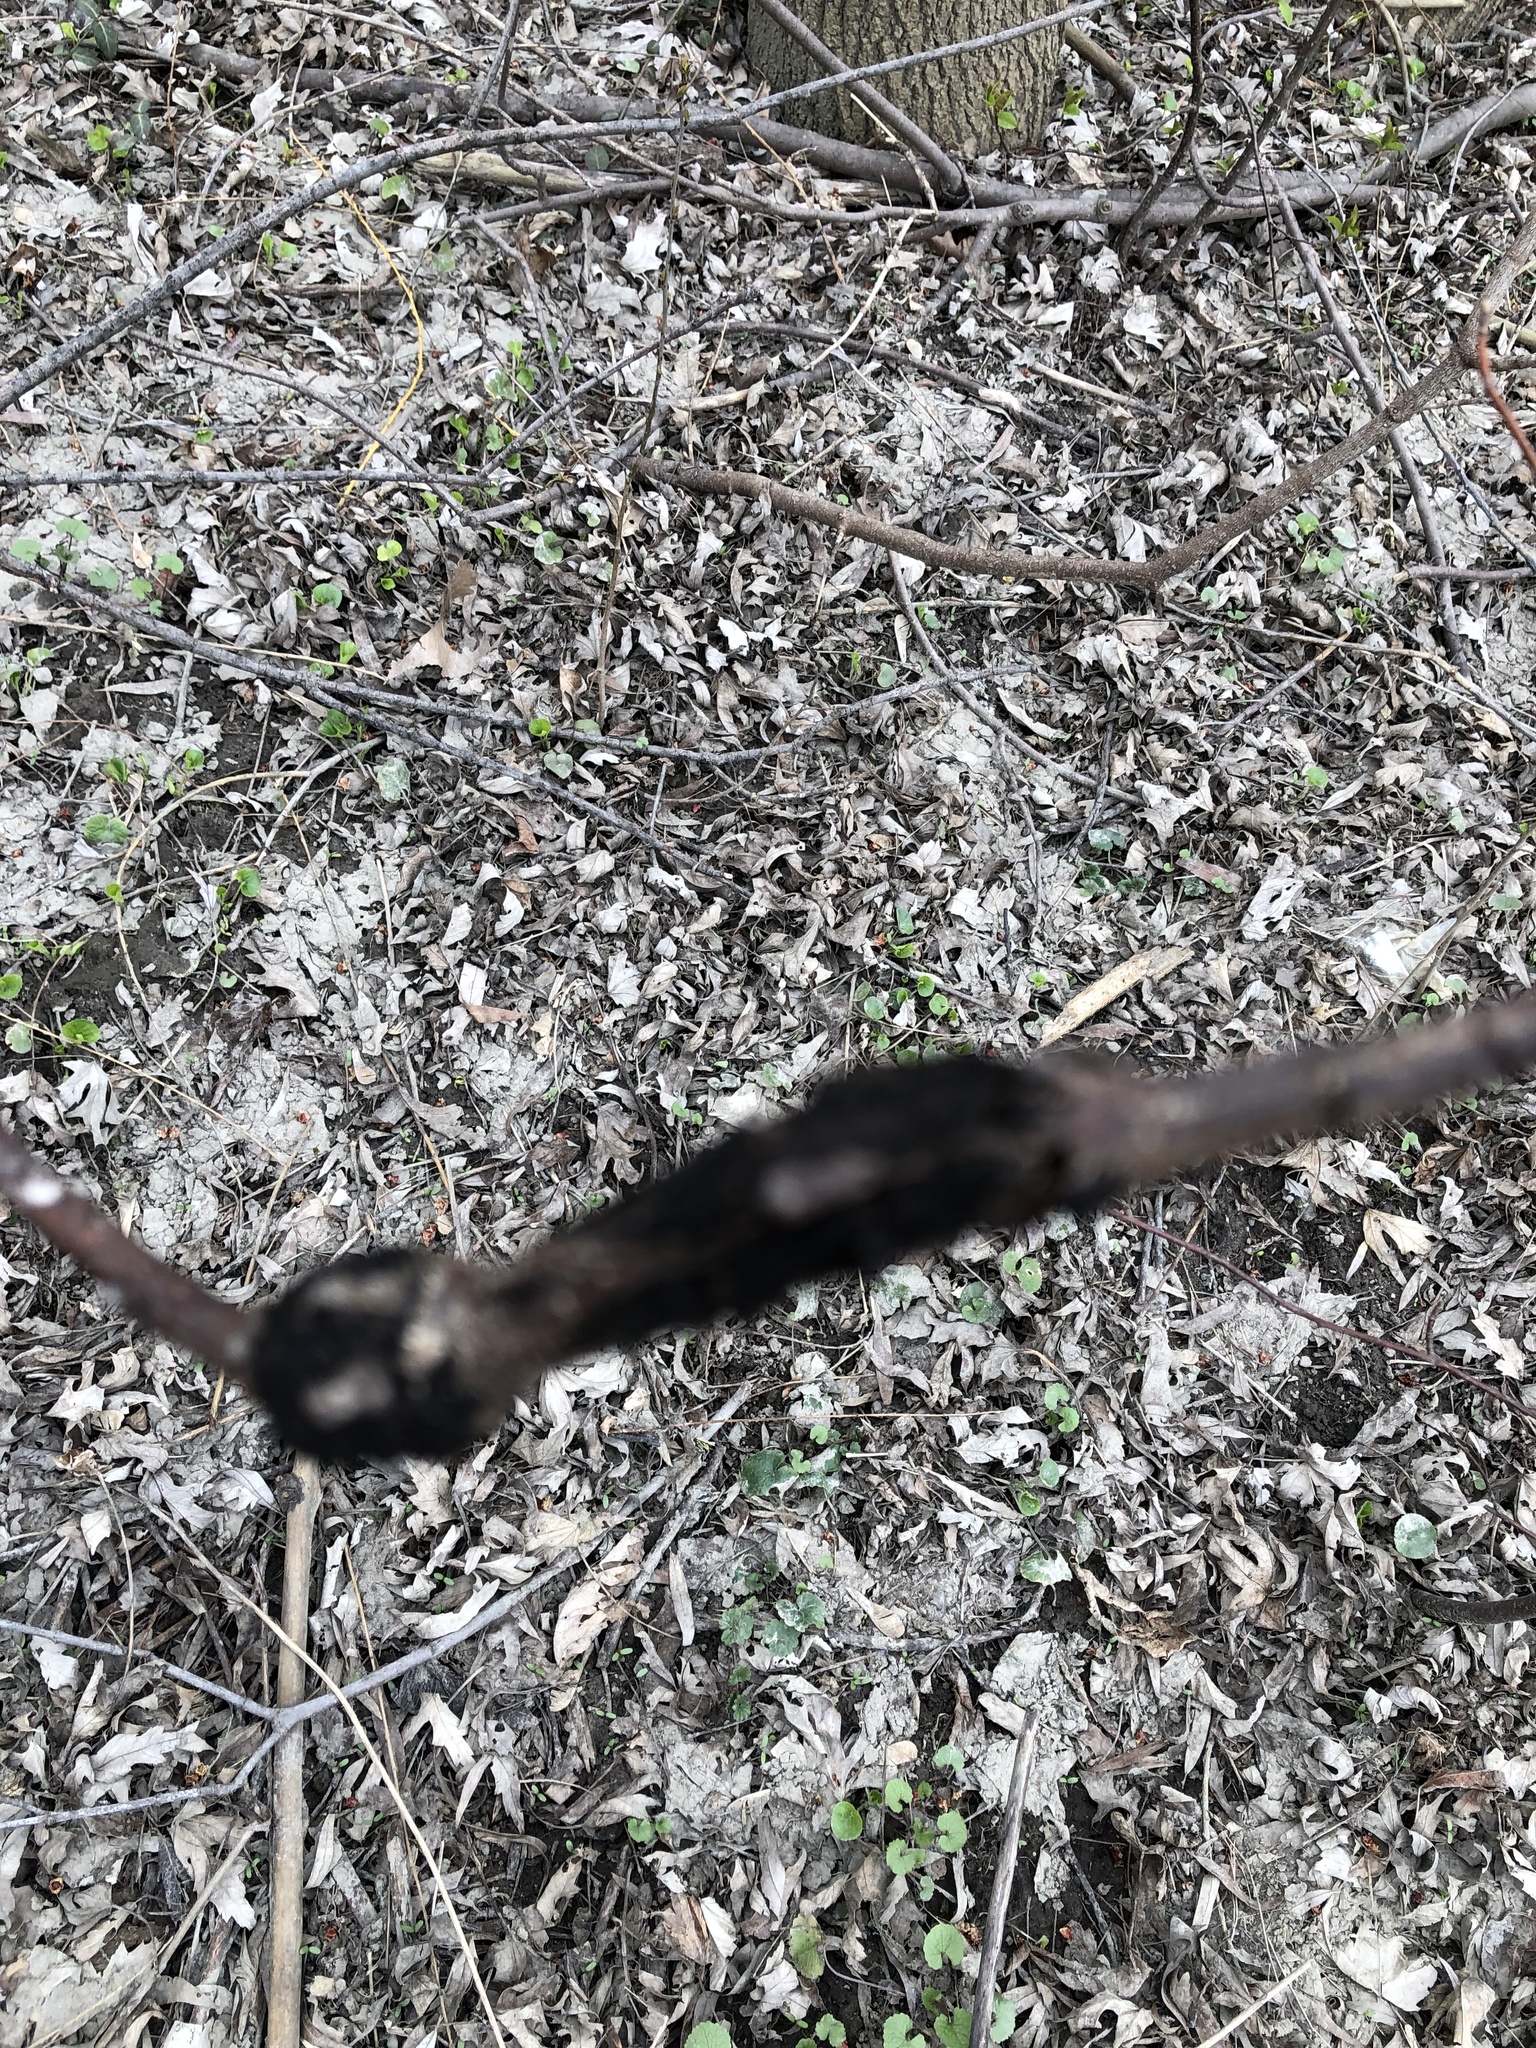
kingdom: Fungi
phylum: Ascomycota
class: Dothideomycetes
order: Venturiales
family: Venturiaceae
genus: Apiosporina
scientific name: Apiosporina morbosa
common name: Black knot
